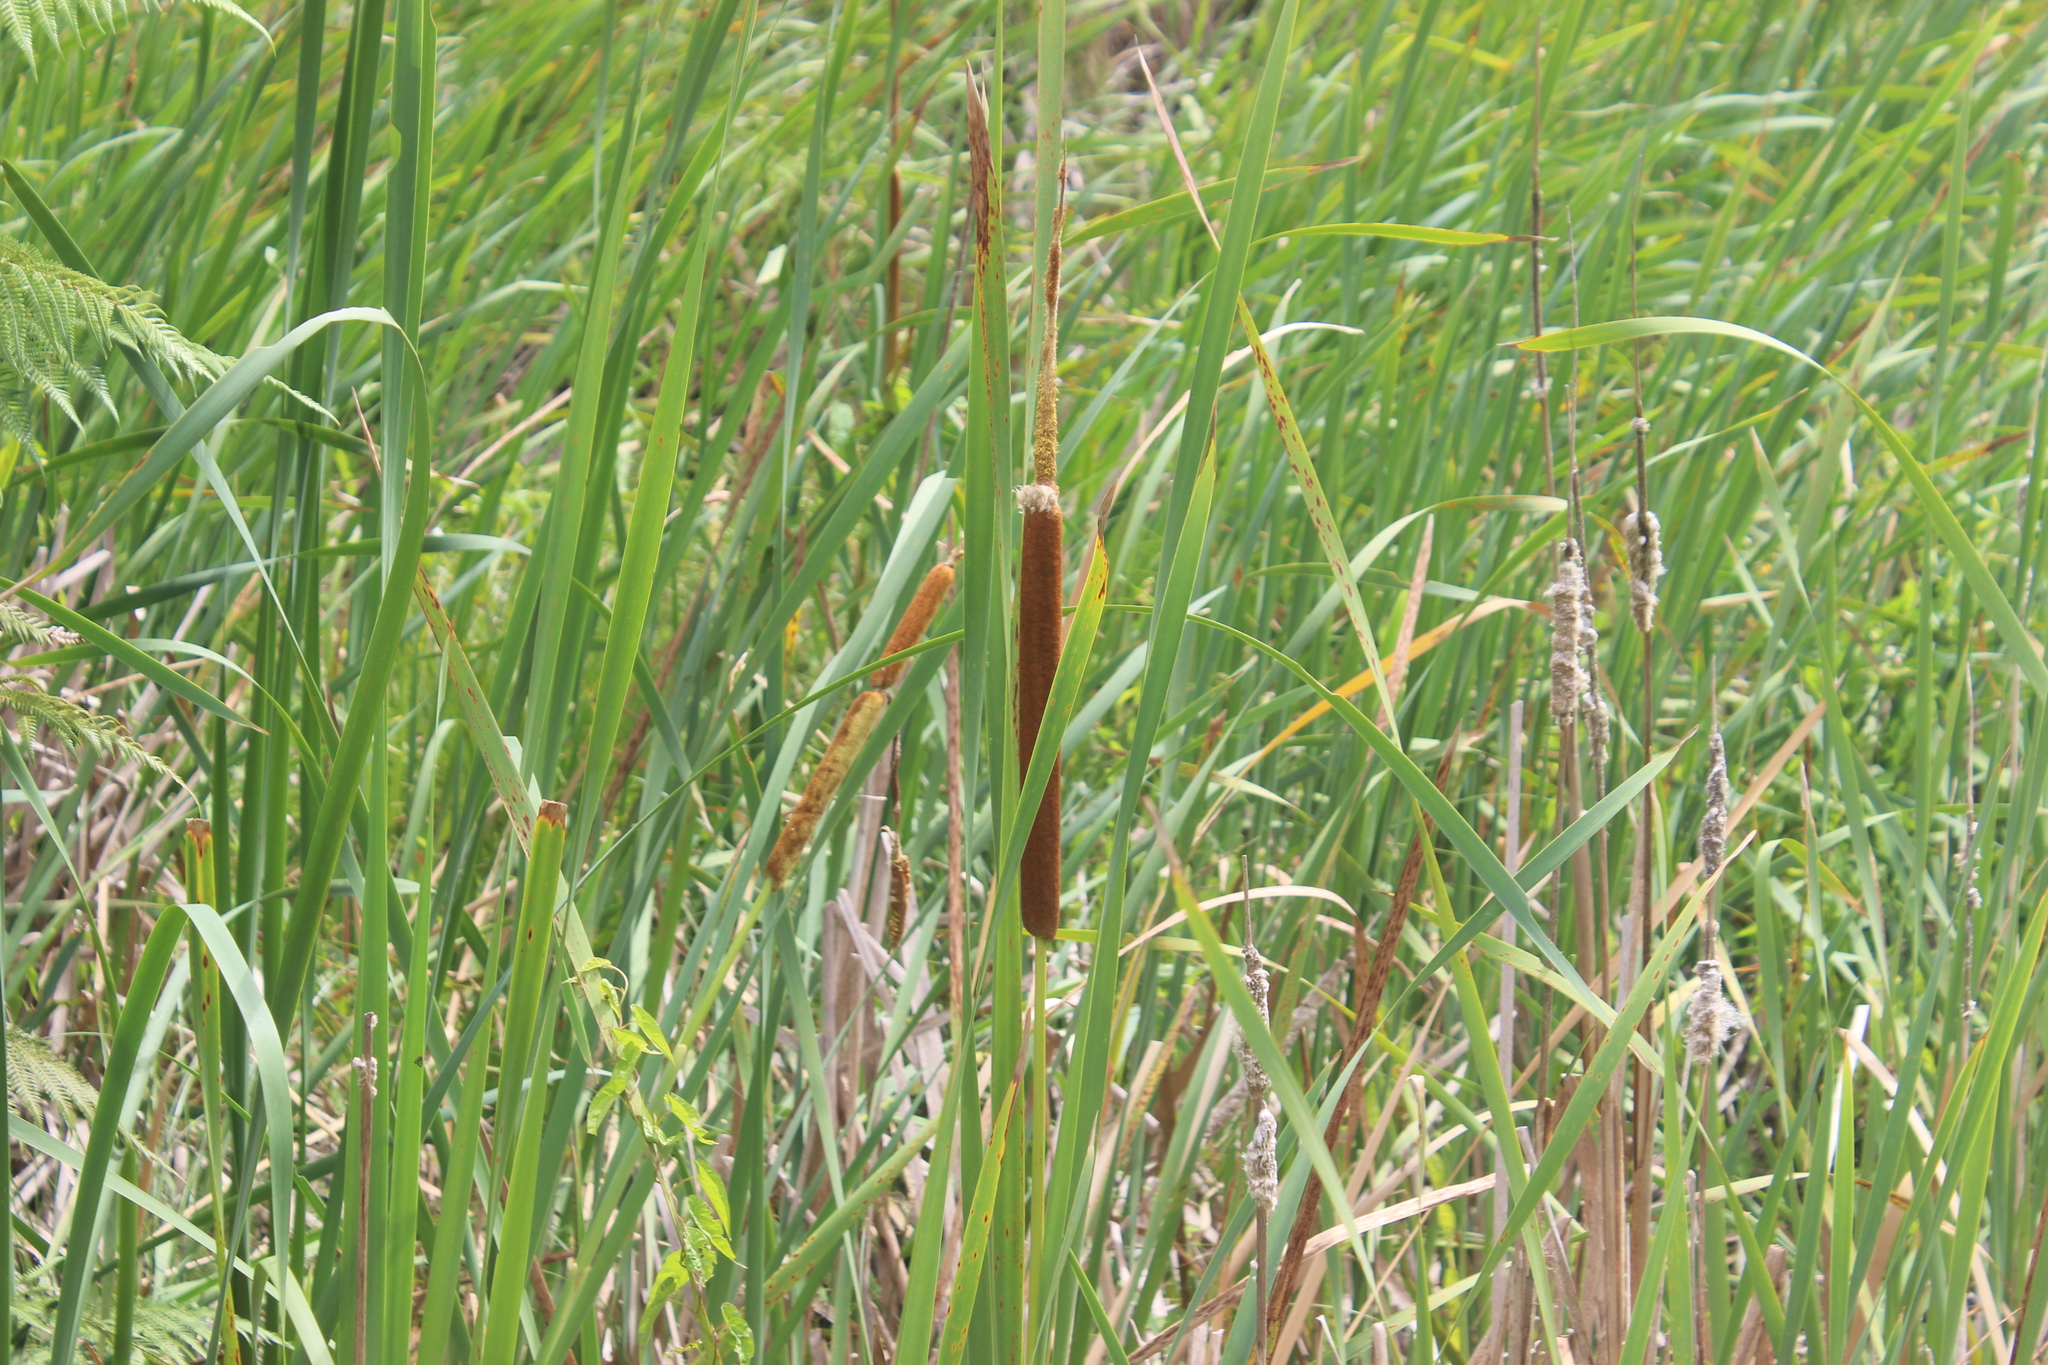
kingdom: Plantae
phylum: Tracheophyta
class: Liliopsida
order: Poales
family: Typhaceae
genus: Typha
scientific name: Typha orientalis
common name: Bullrush
